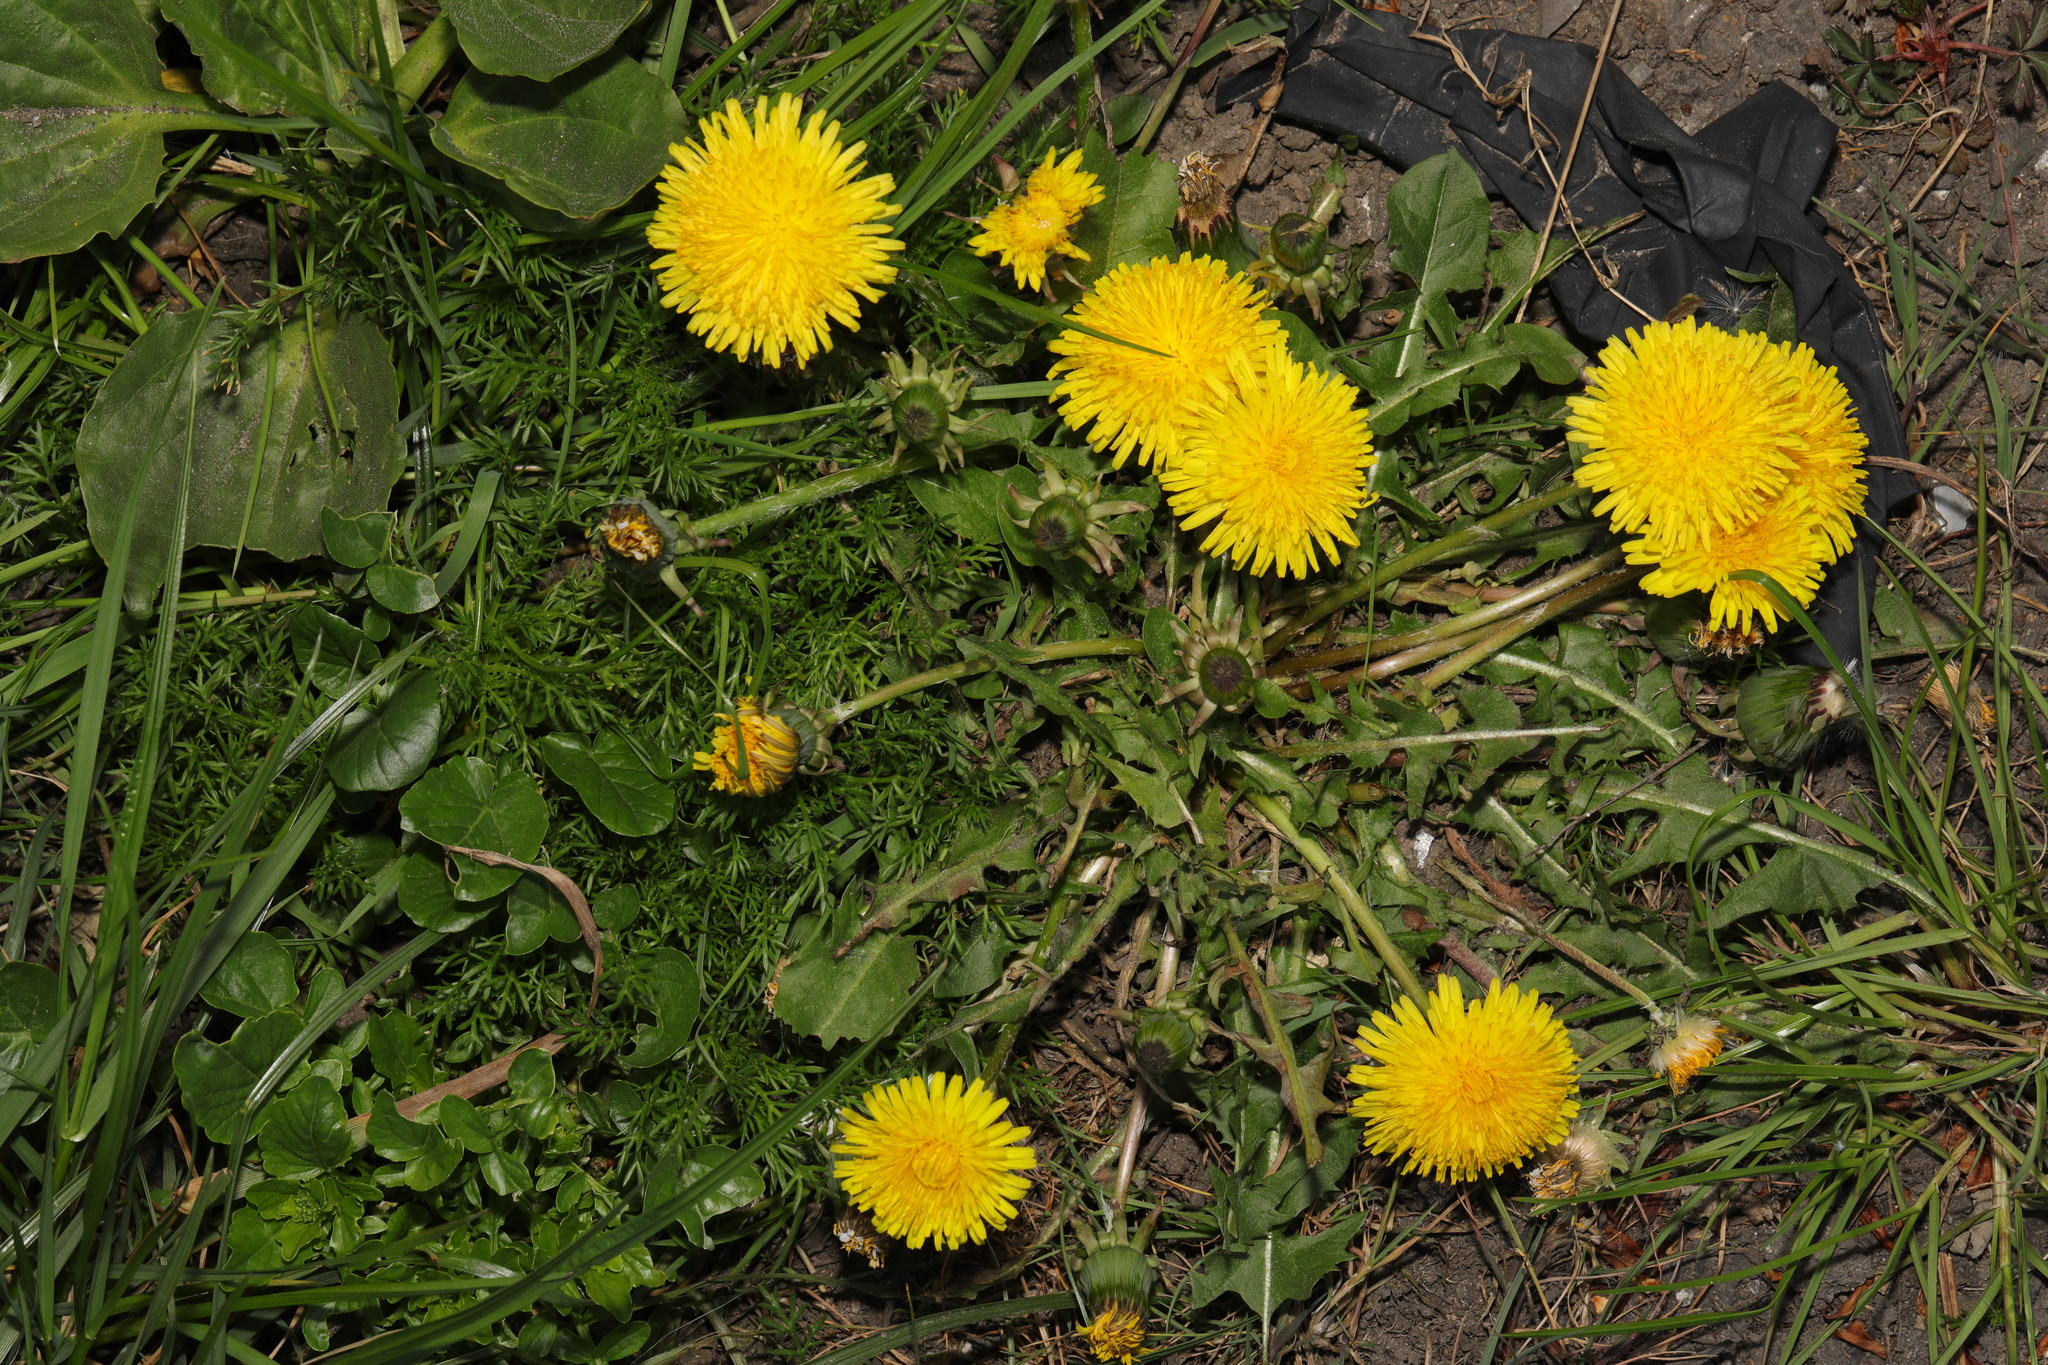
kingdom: Plantae
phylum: Tracheophyta
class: Magnoliopsida
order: Asterales
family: Asteraceae
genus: Taraxacum
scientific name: Taraxacum officinale
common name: Common dandelion
